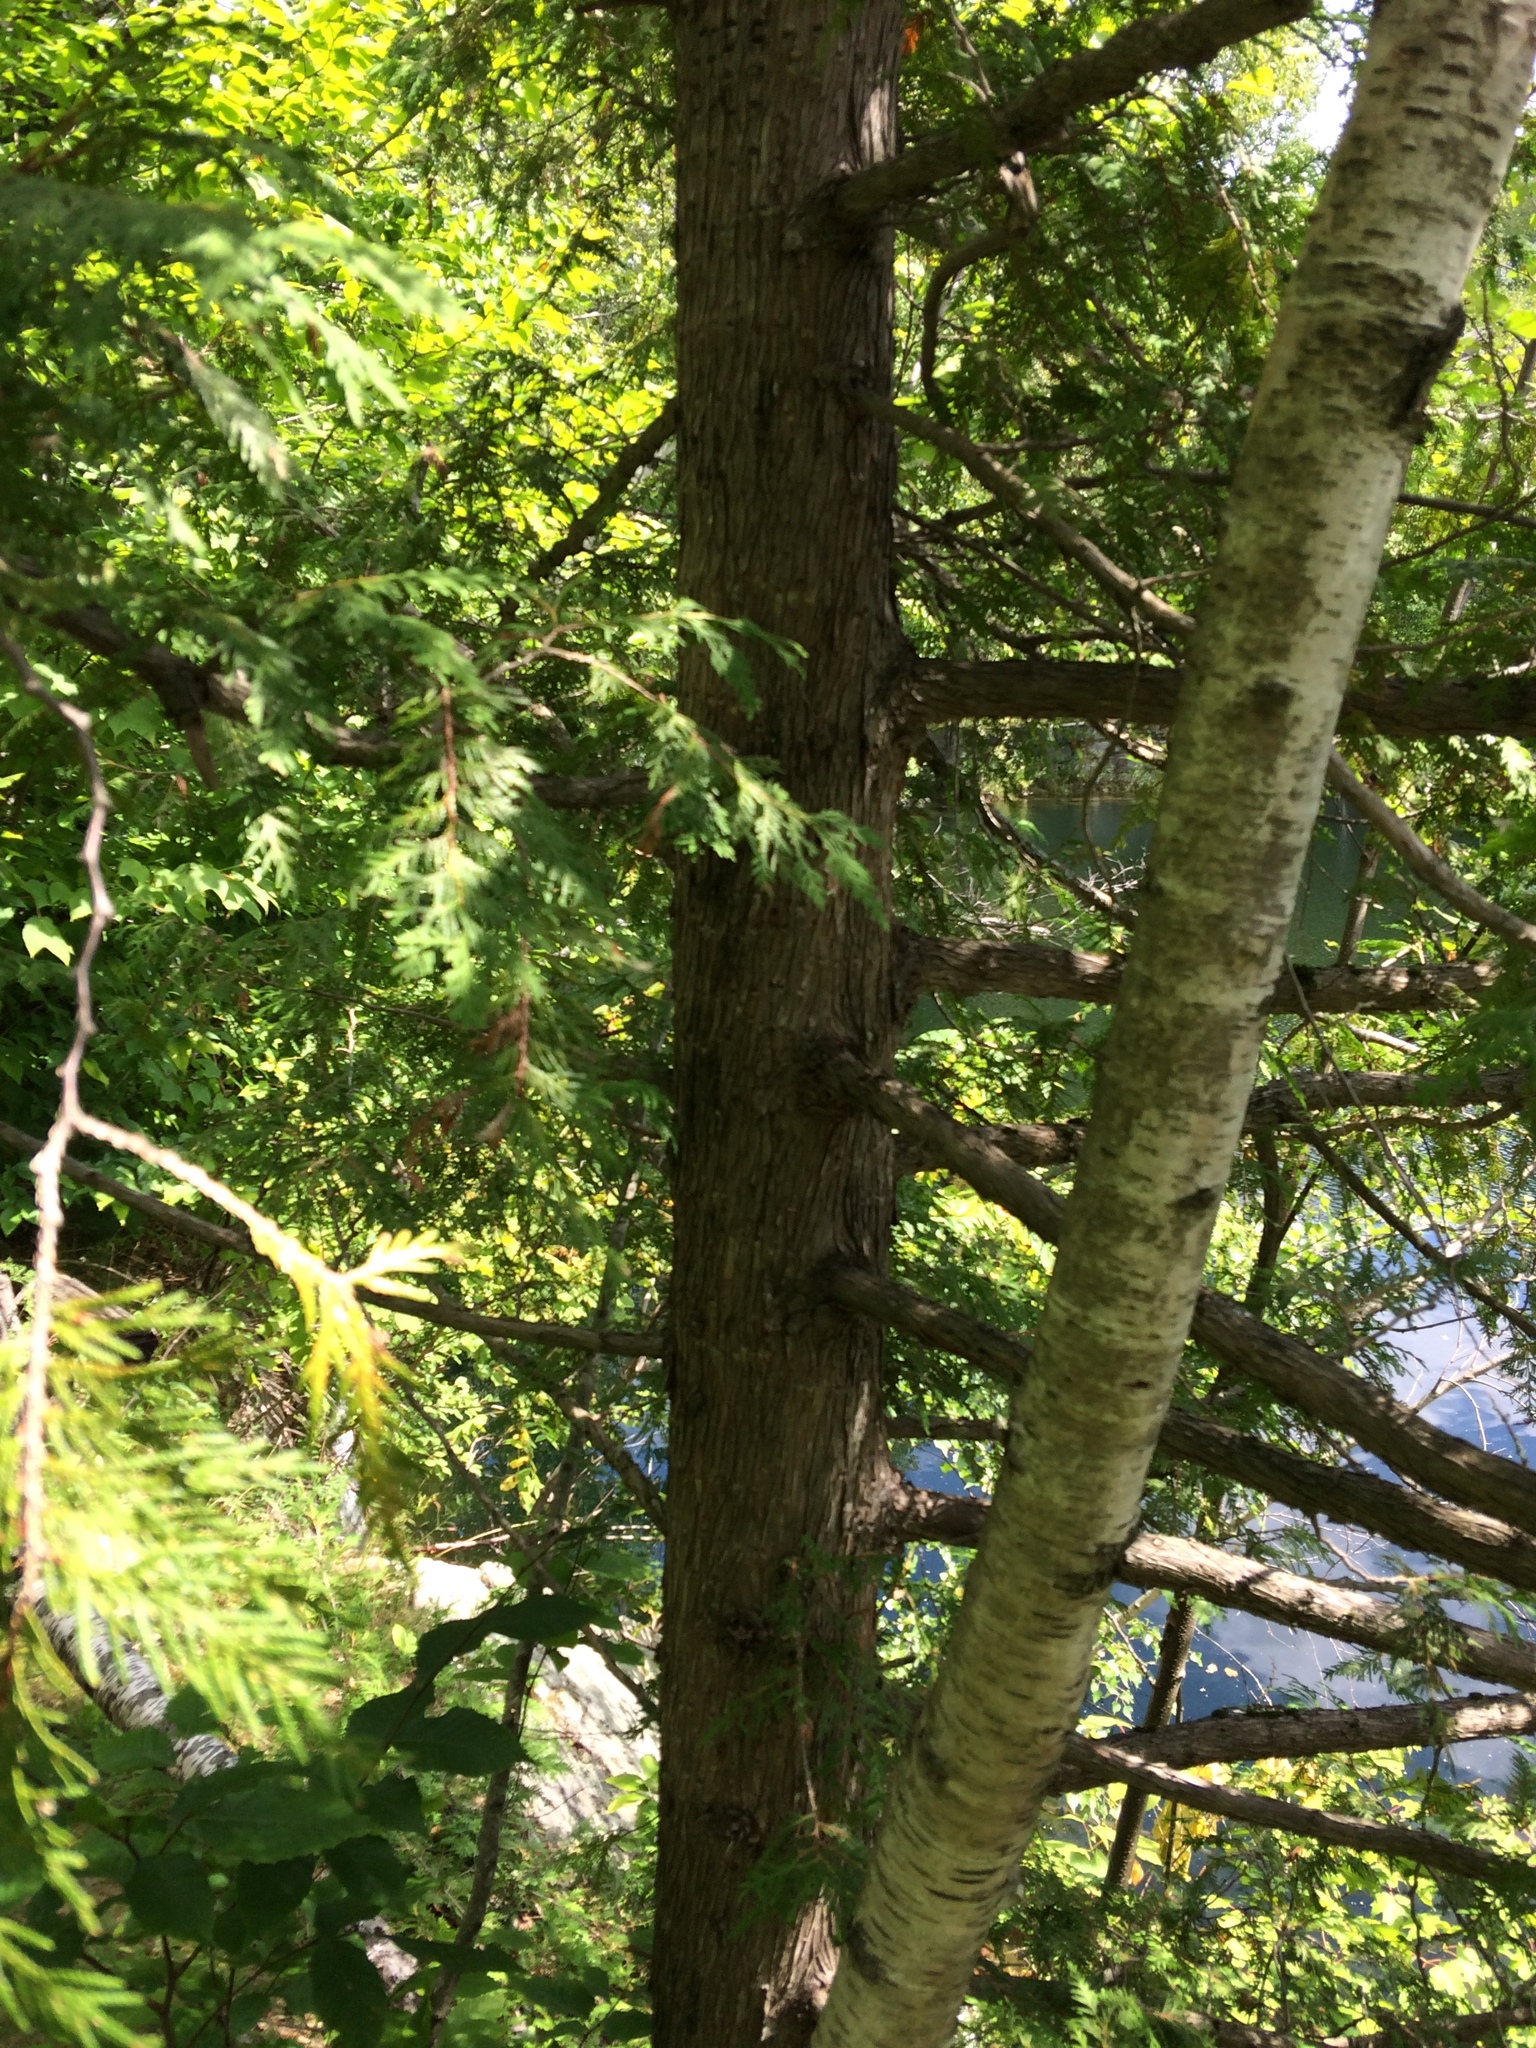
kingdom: Plantae
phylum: Tracheophyta
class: Pinopsida
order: Pinales
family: Cupressaceae
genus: Thuja
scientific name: Thuja occidentalis
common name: Northern white-cedar
